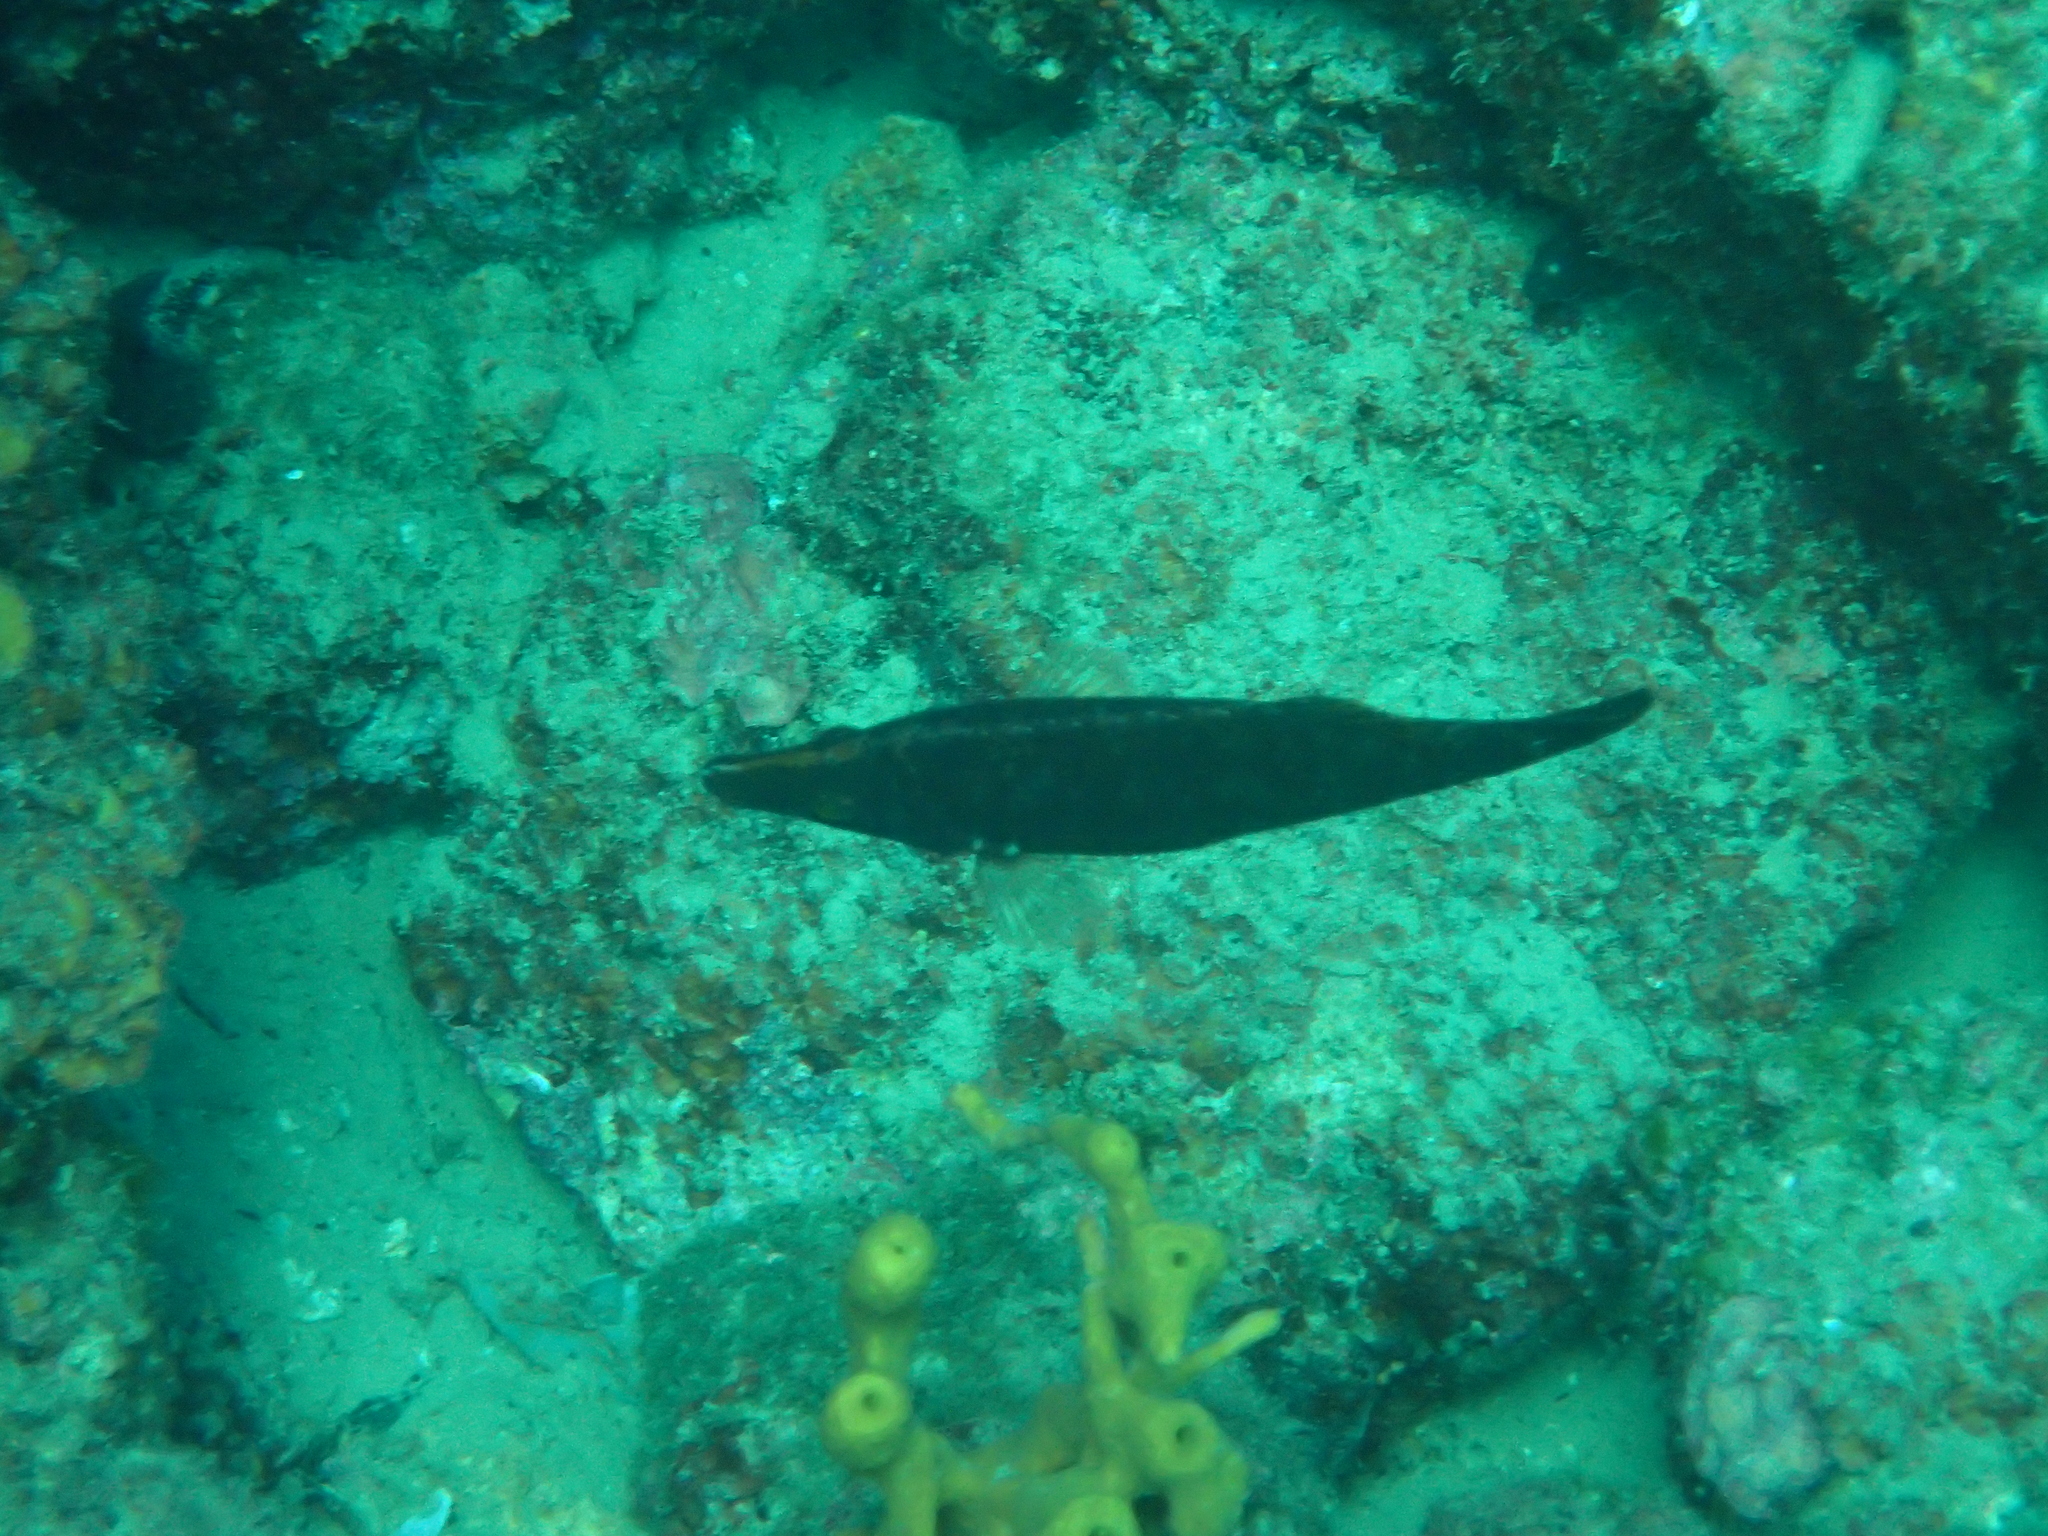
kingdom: Animalia
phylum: Chordata
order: Perciformes
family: Labridae
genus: Symphodus
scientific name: Symphodus rostratus
